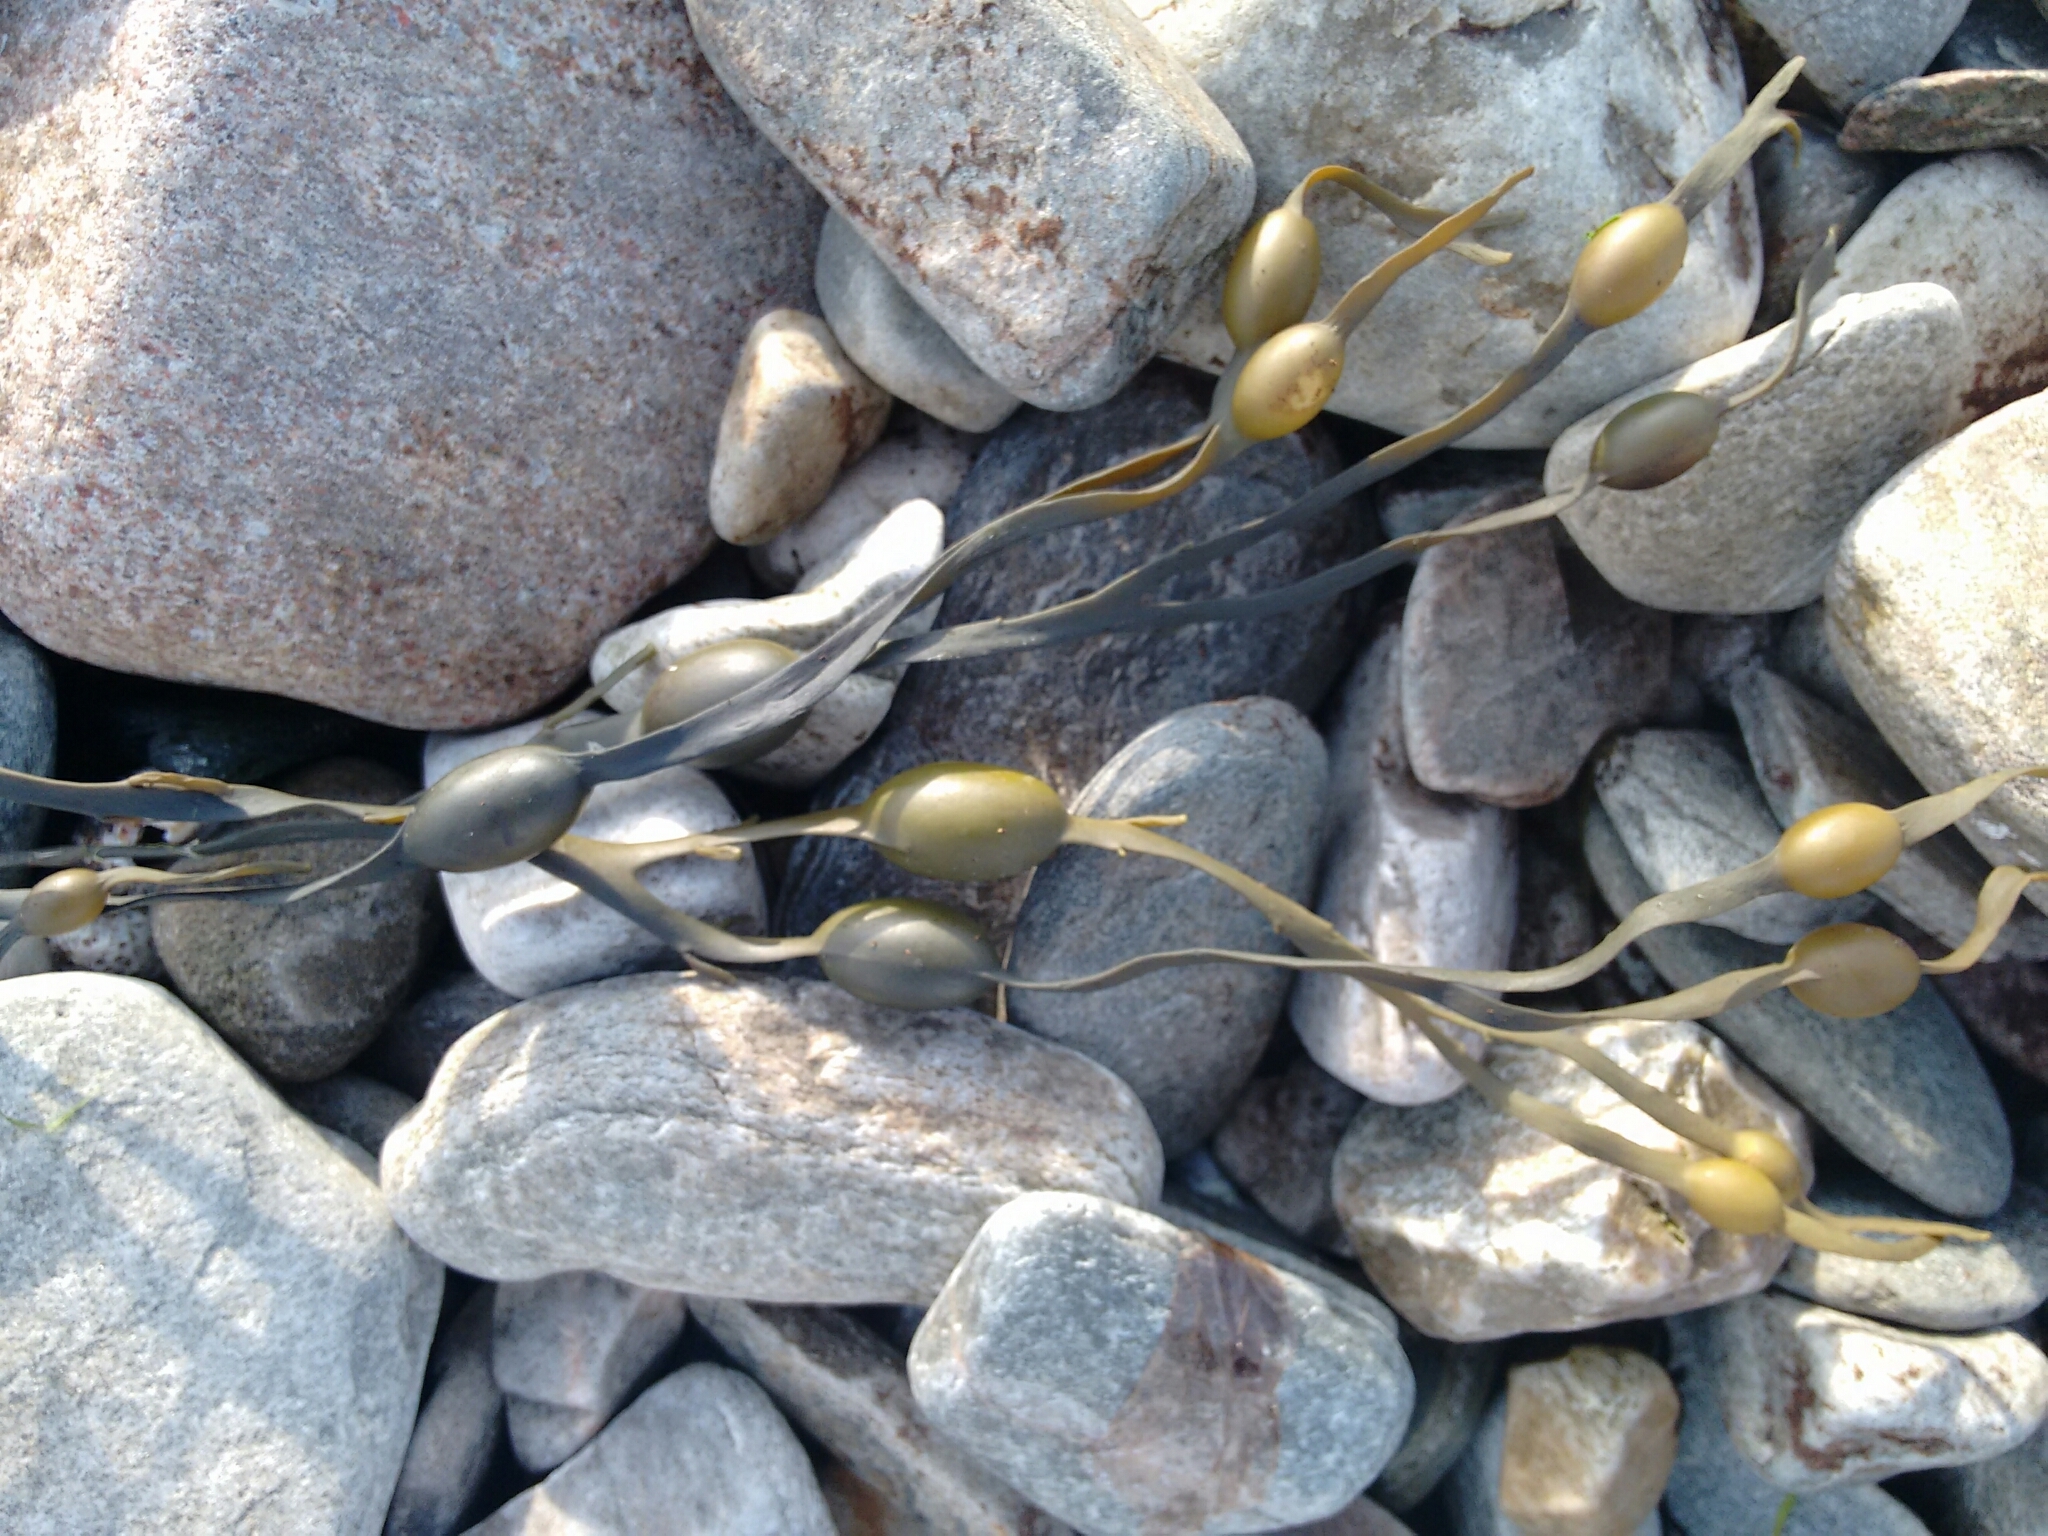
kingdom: Chromista
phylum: Ochrophyta
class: Phaeophyceae
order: Fucales
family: Fucaceae
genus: Ascophyllum
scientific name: Ascophyllum nodosum
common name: Knotted wrack
